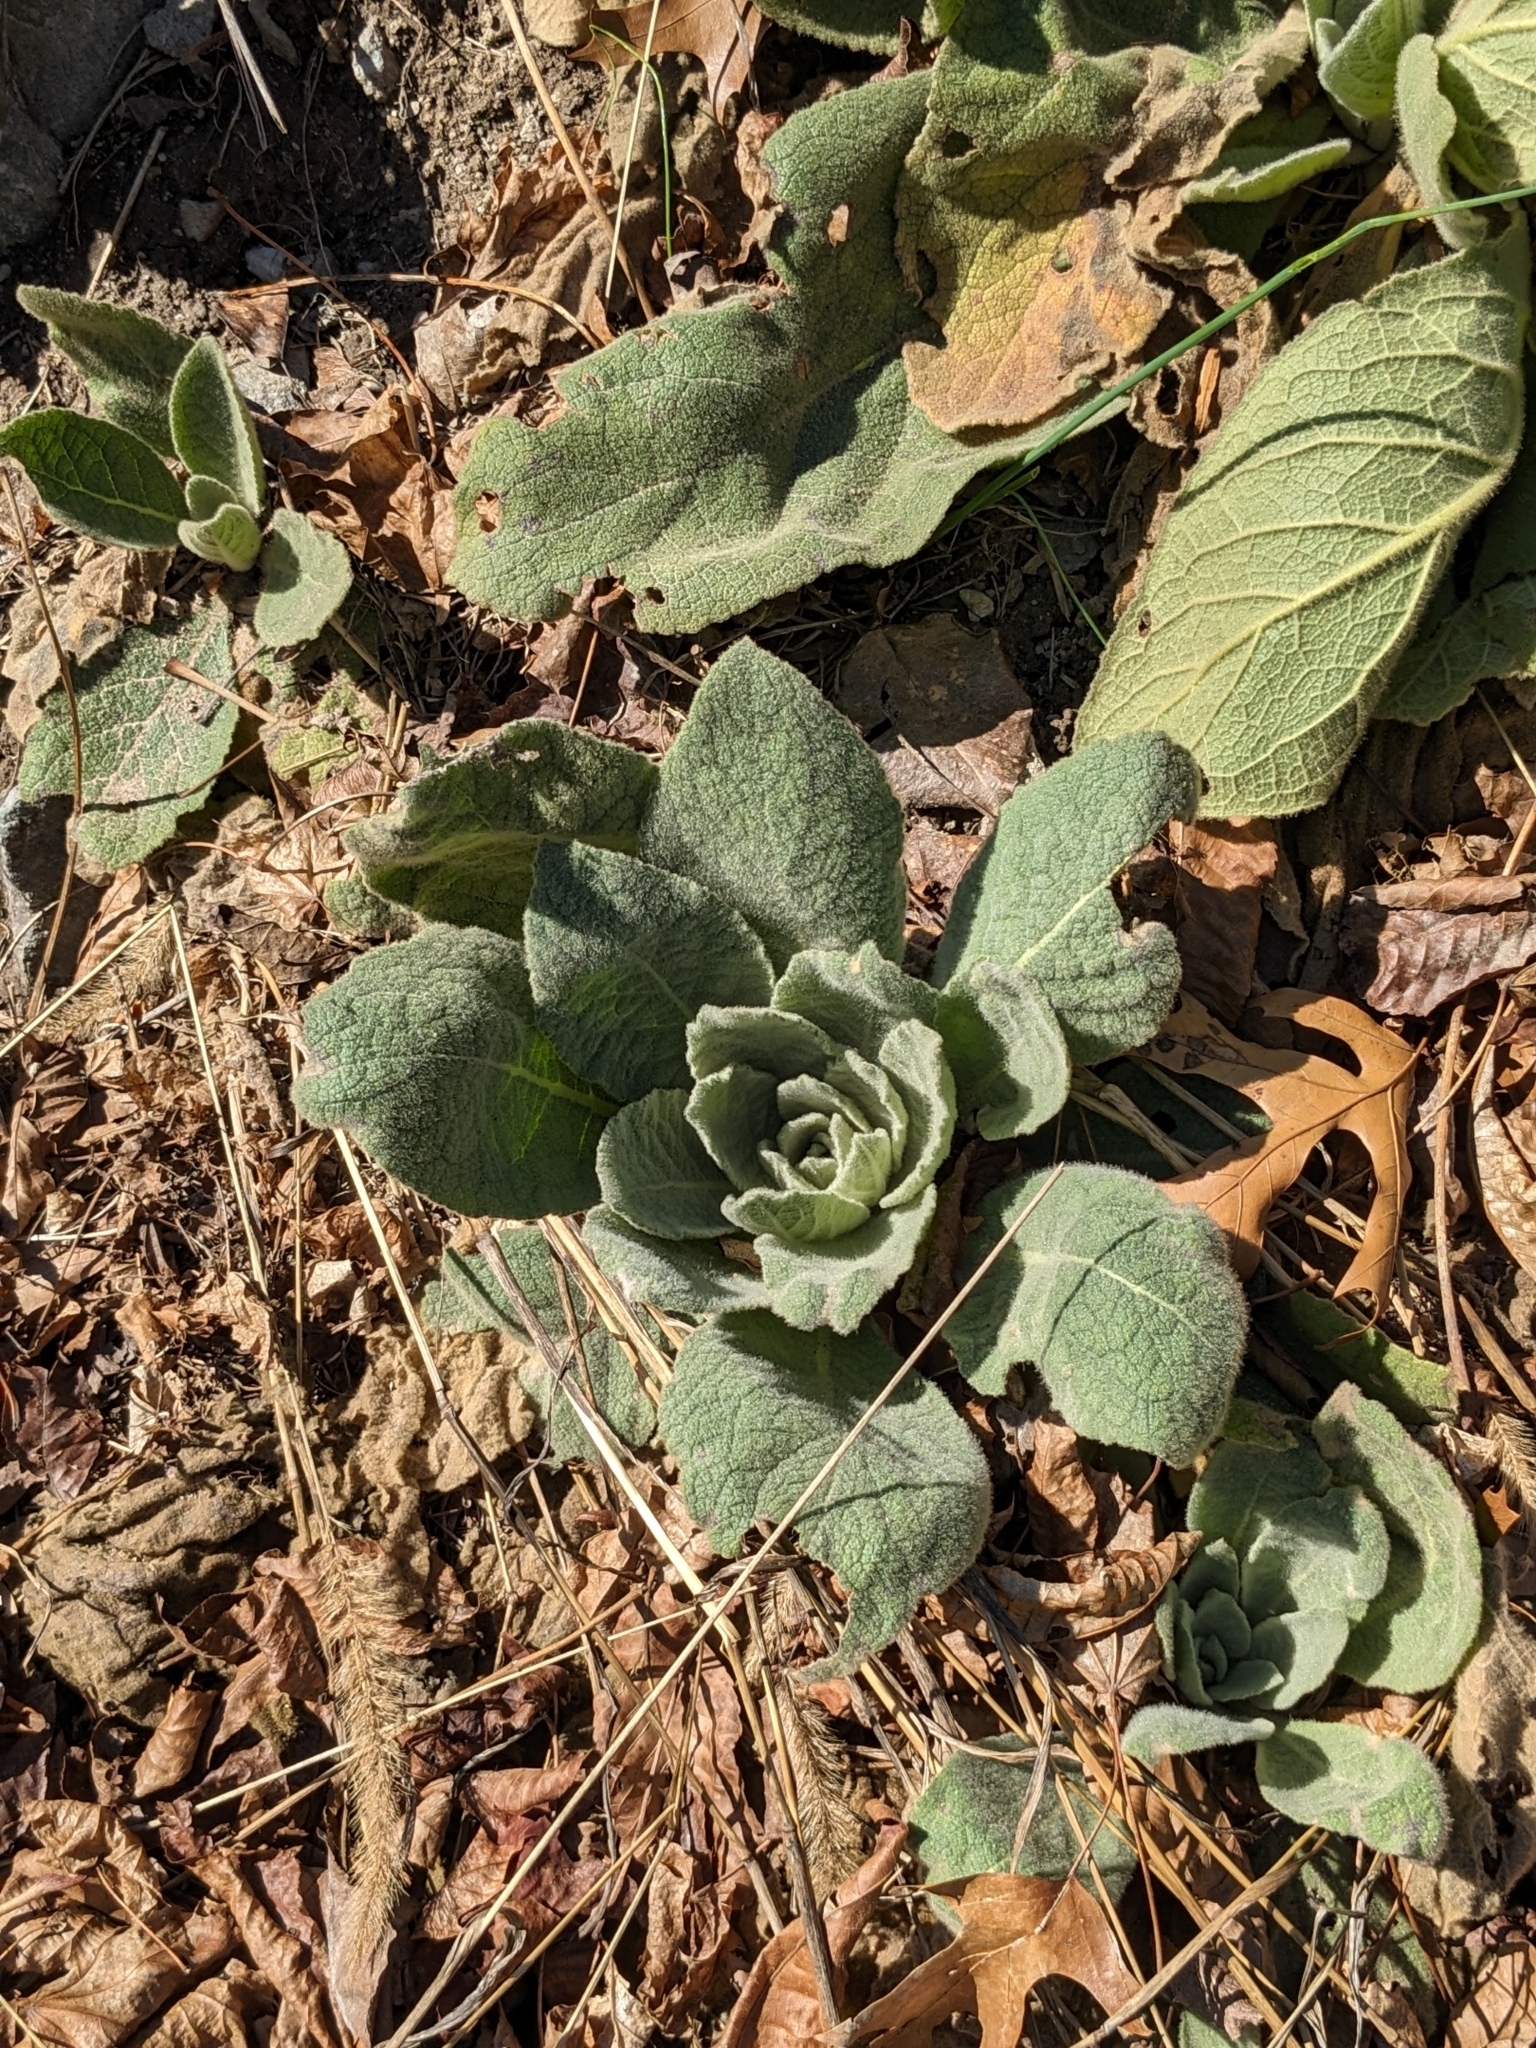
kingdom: Plantae
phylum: Tracheophyta
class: Magnoliopsida
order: Lamiales
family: Scrophulariaceae
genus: Verbascum
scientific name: Verbascum thapsus
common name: Common mullein
